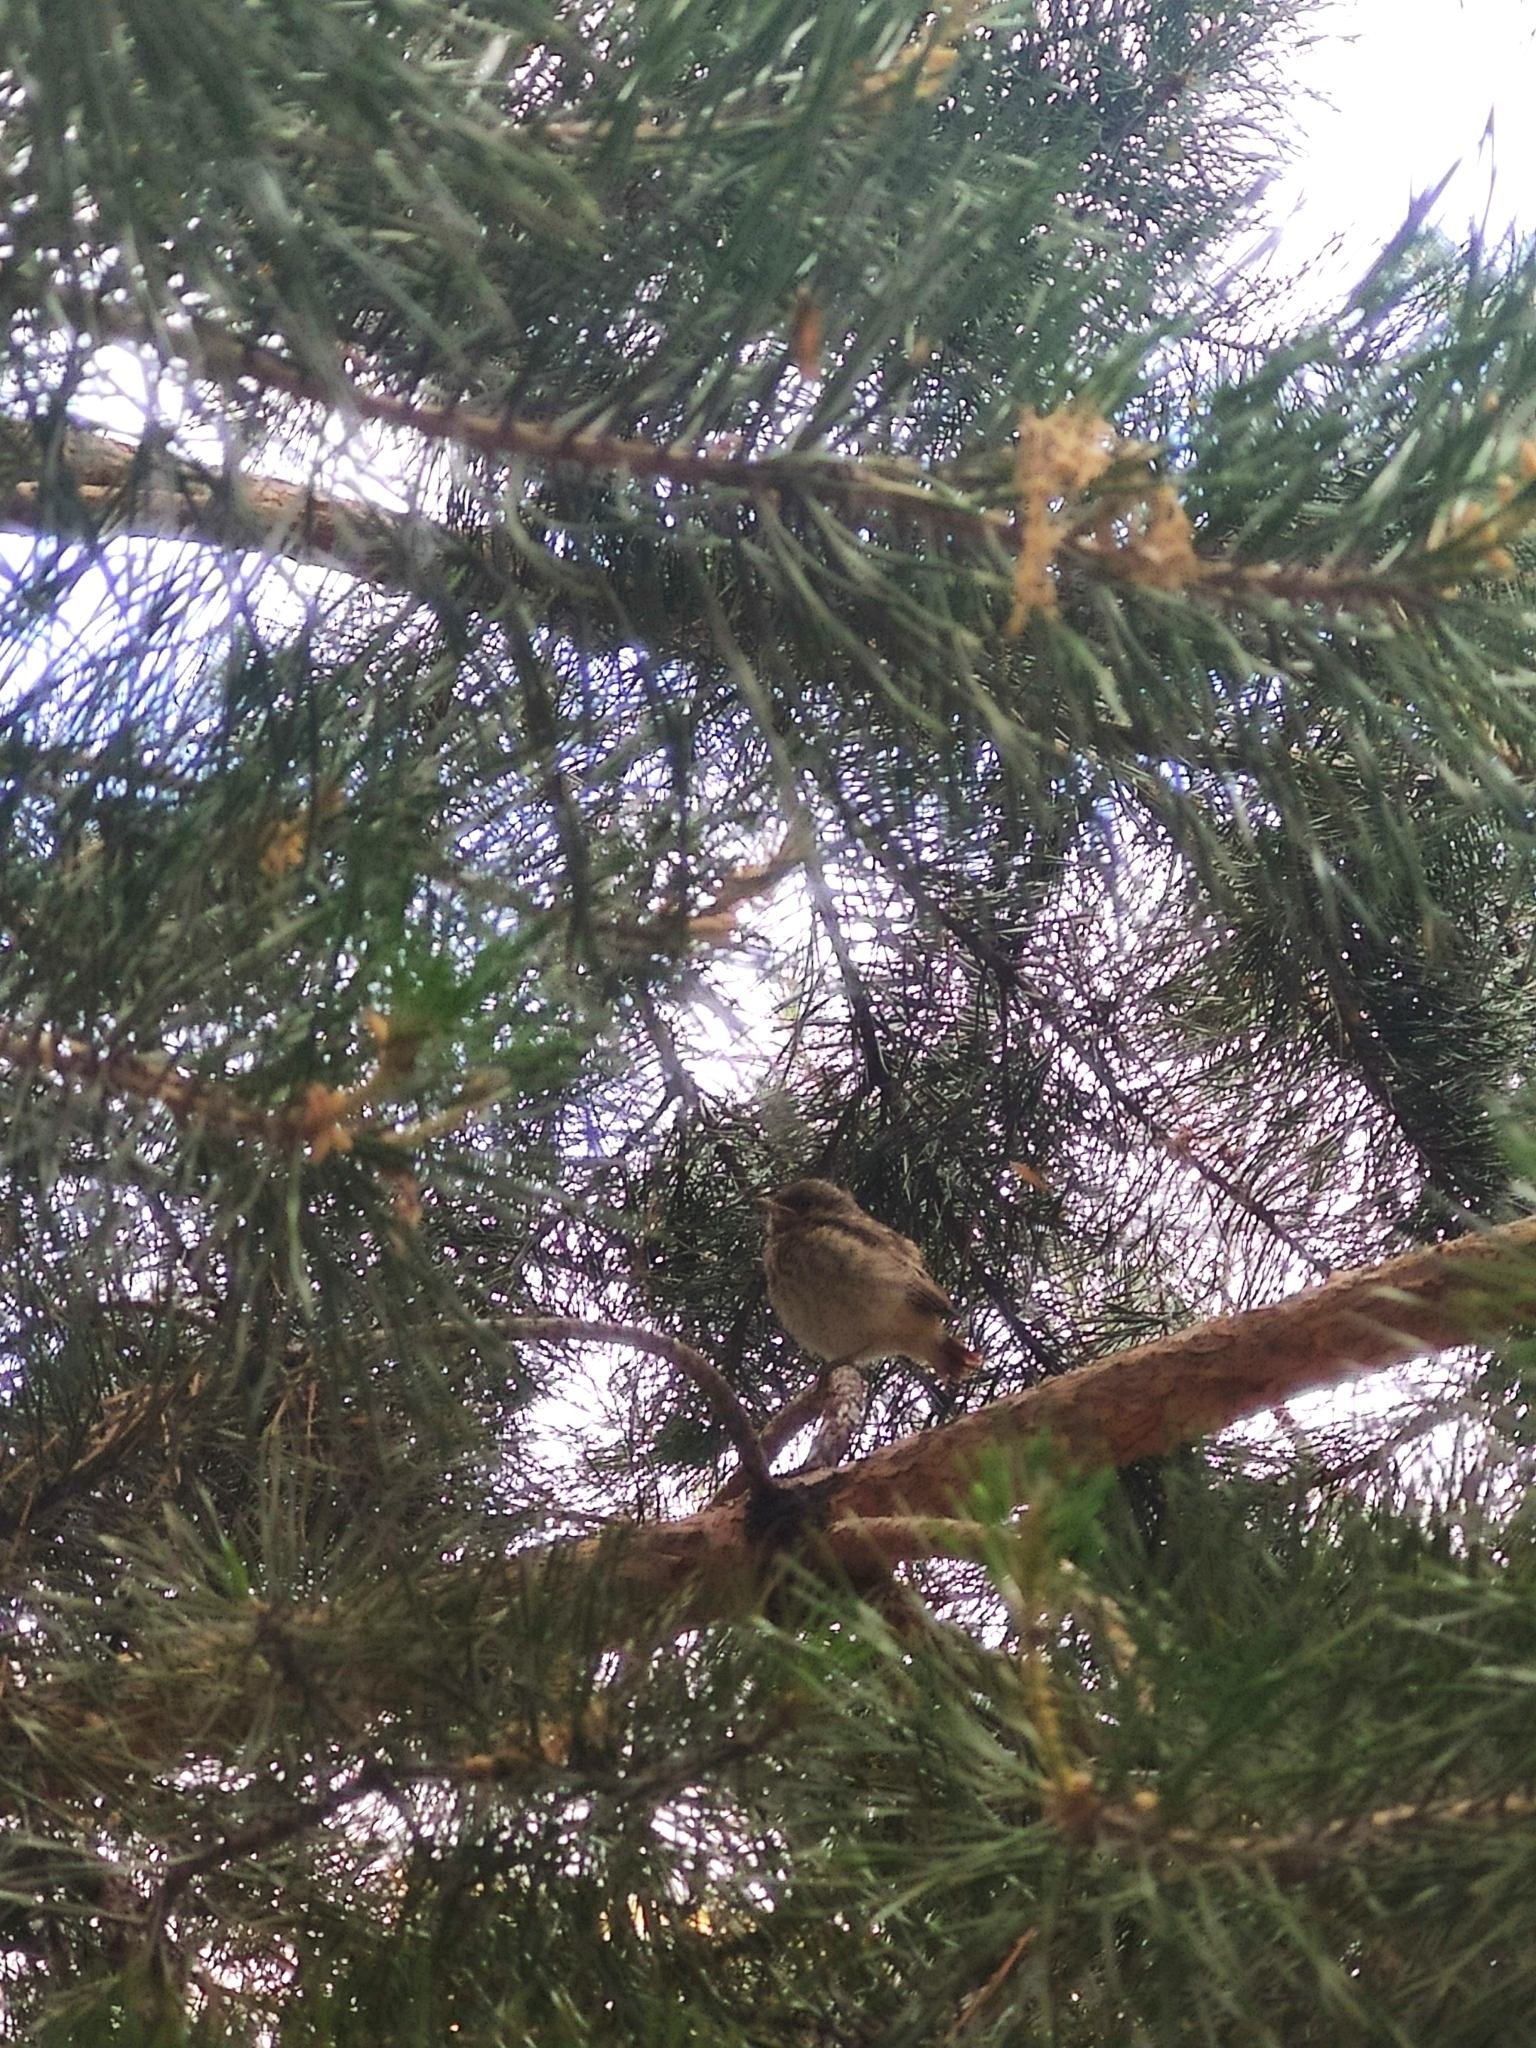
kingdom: Animalia
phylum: Chordata
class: Aves
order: Passeriformes
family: Muscicapidae
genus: Phoenicurus
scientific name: Phoenicurus phoenicurus
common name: Common redstart
